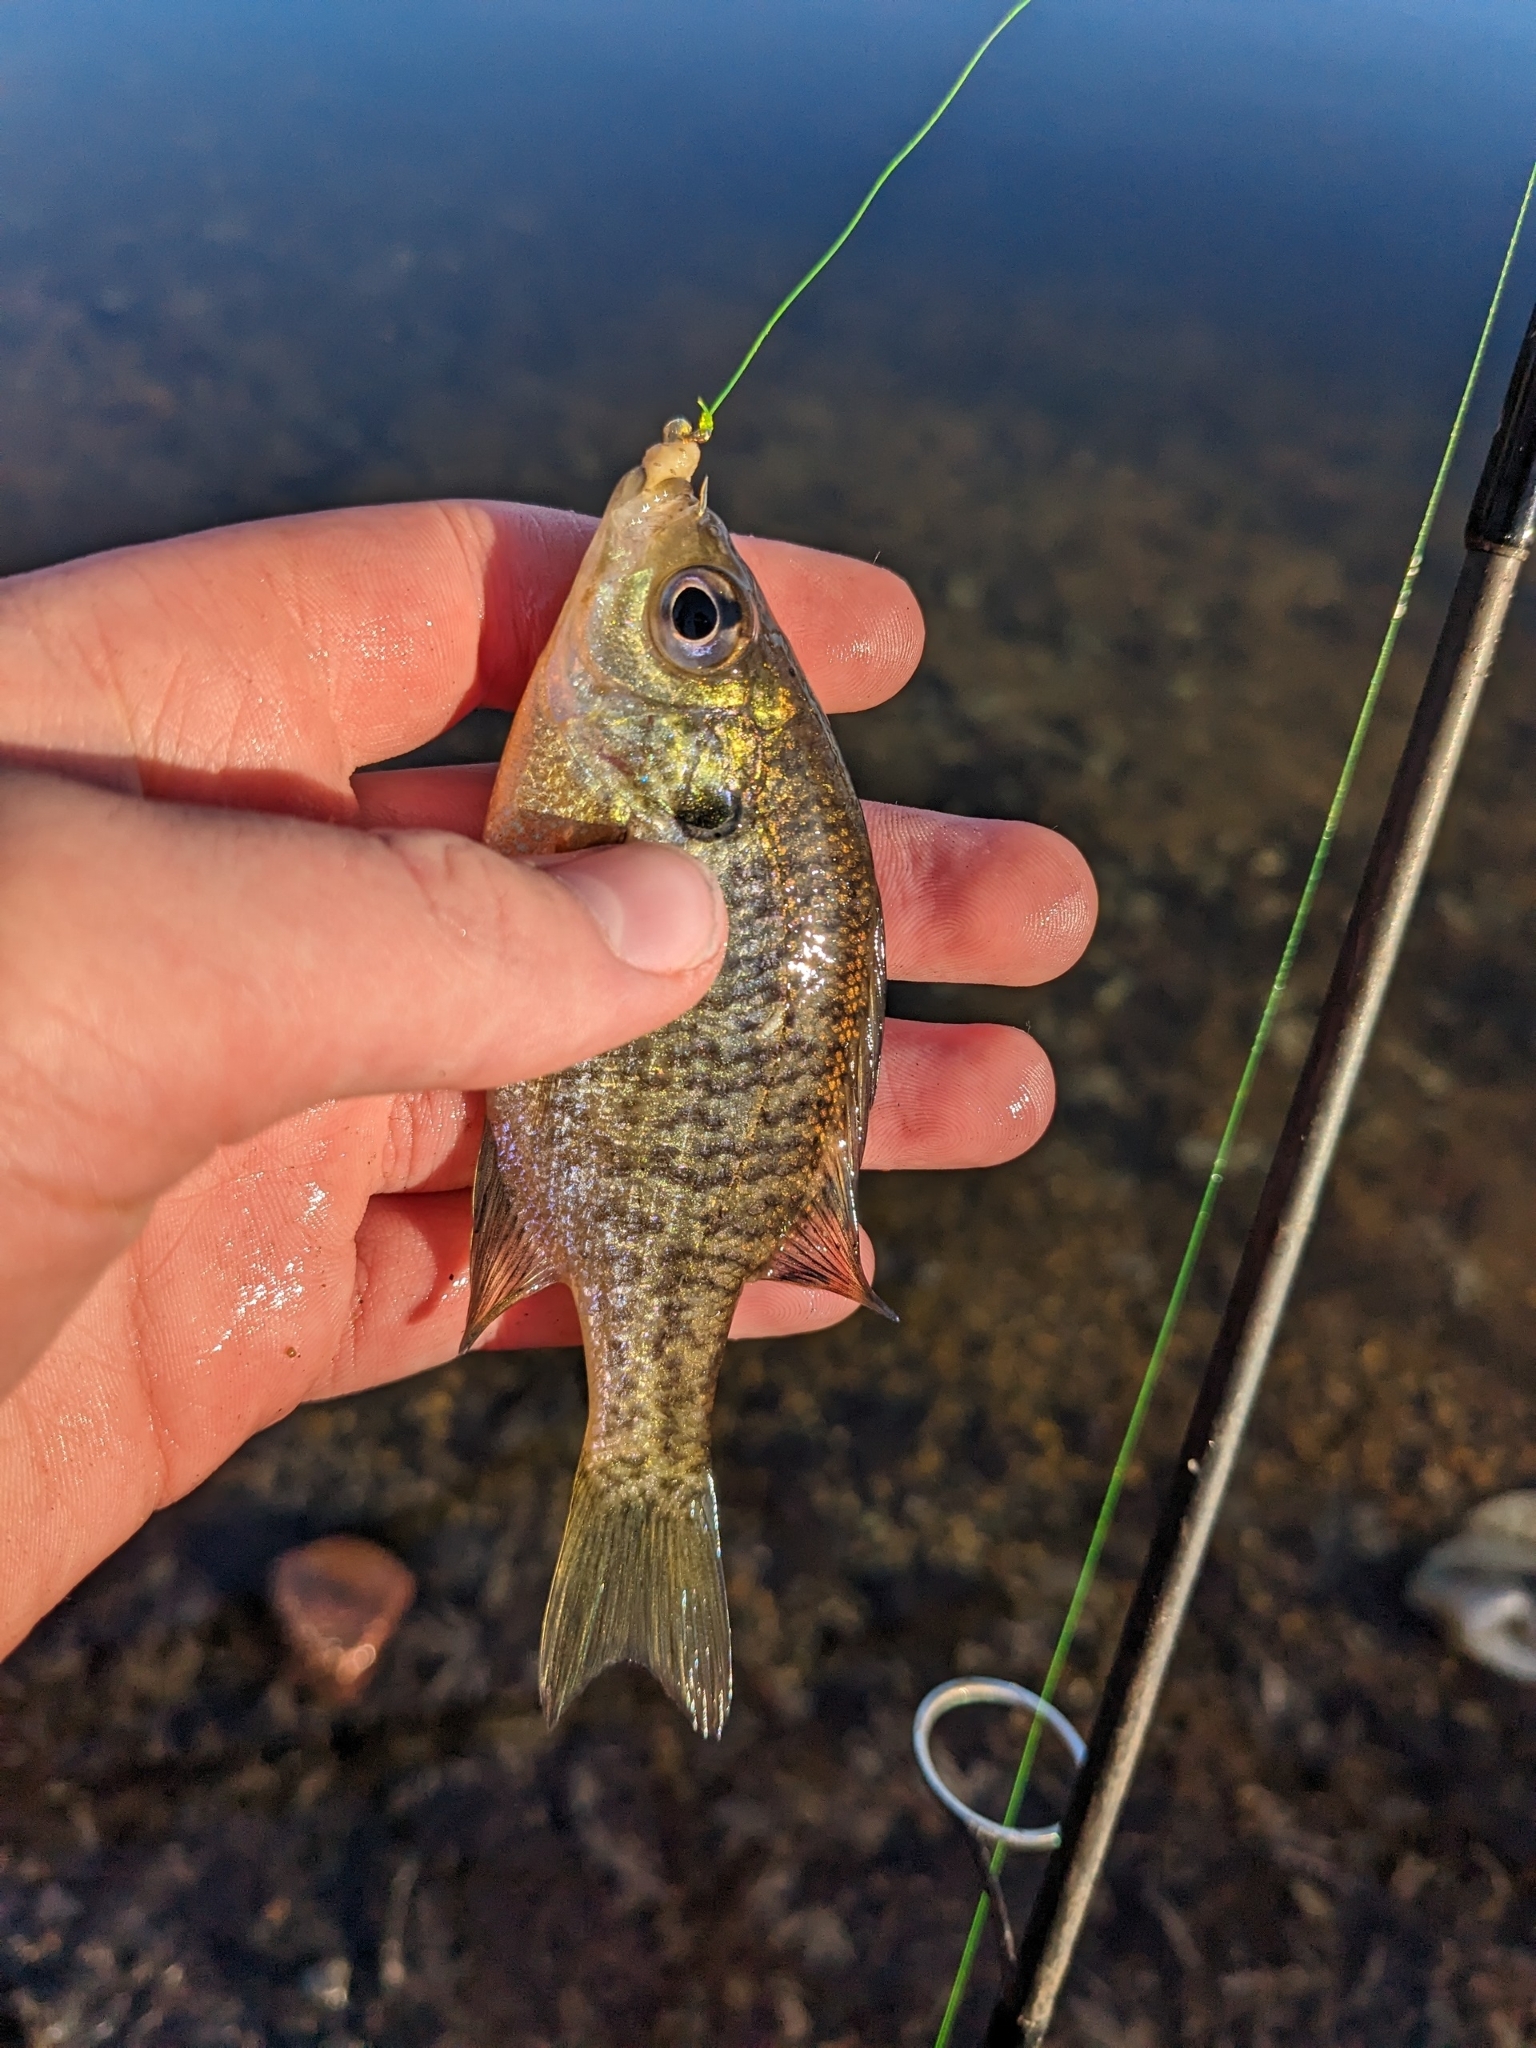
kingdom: Animalia
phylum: Chordata
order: Perciformes
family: Centrarchidae
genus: Lepomis
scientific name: Lepomis macrochirus
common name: Bluegill
